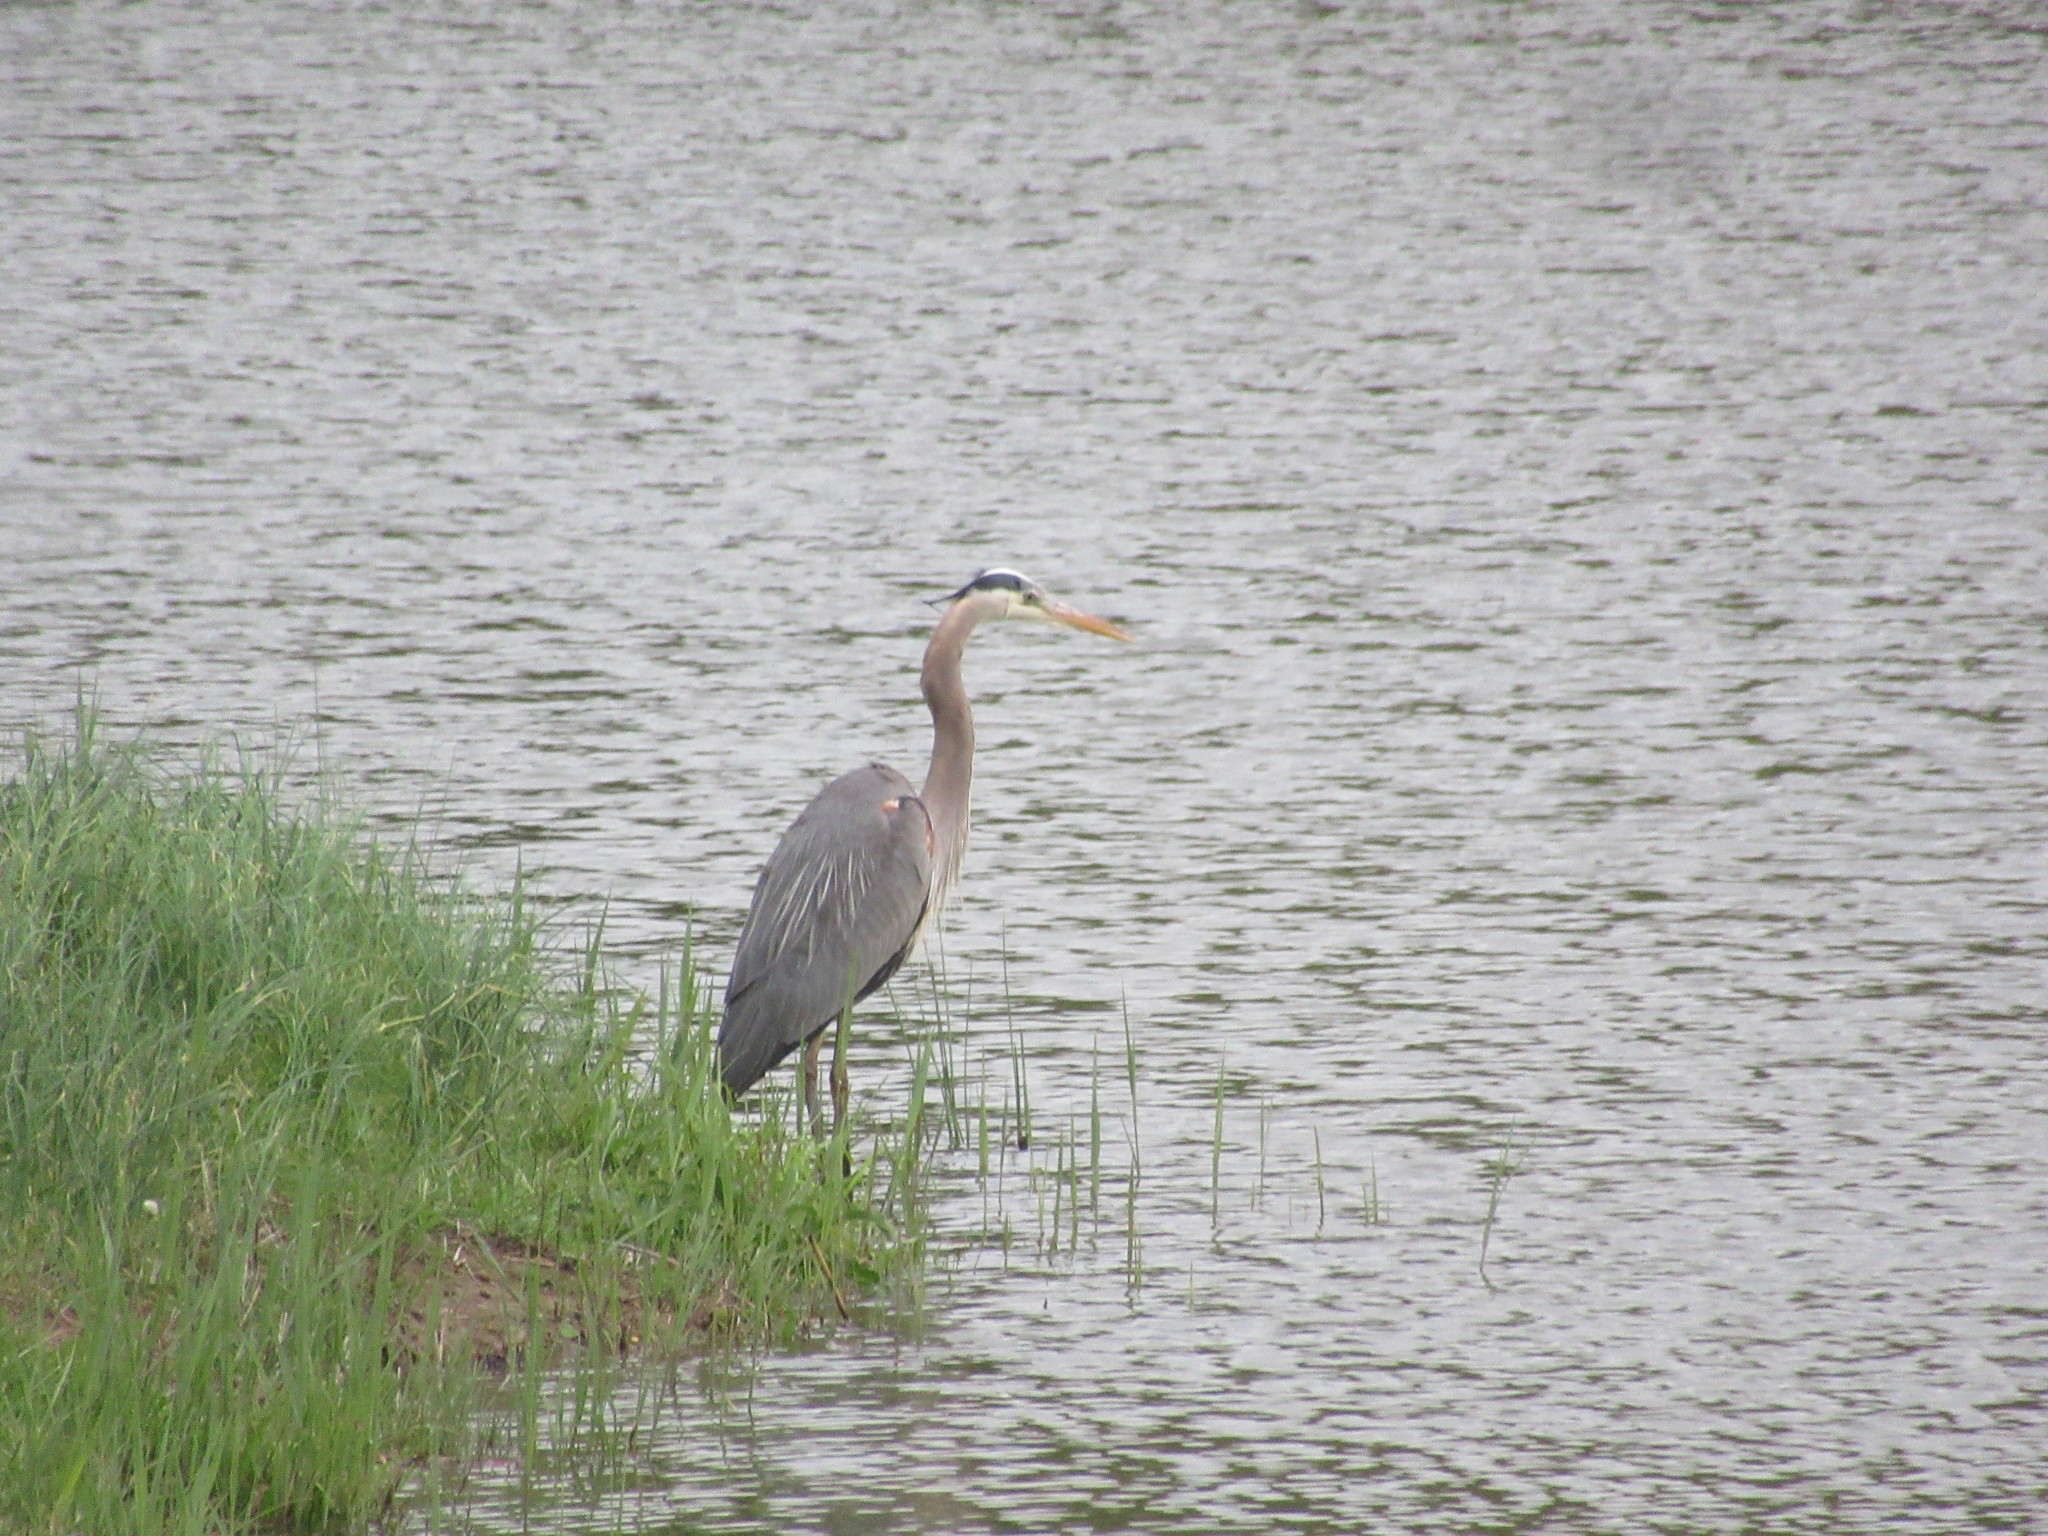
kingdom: Animalia
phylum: Chordata
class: Aves
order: Pelecaniformes
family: Ardeidae
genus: Ardea
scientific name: Ardea herodias
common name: Great blue heron
